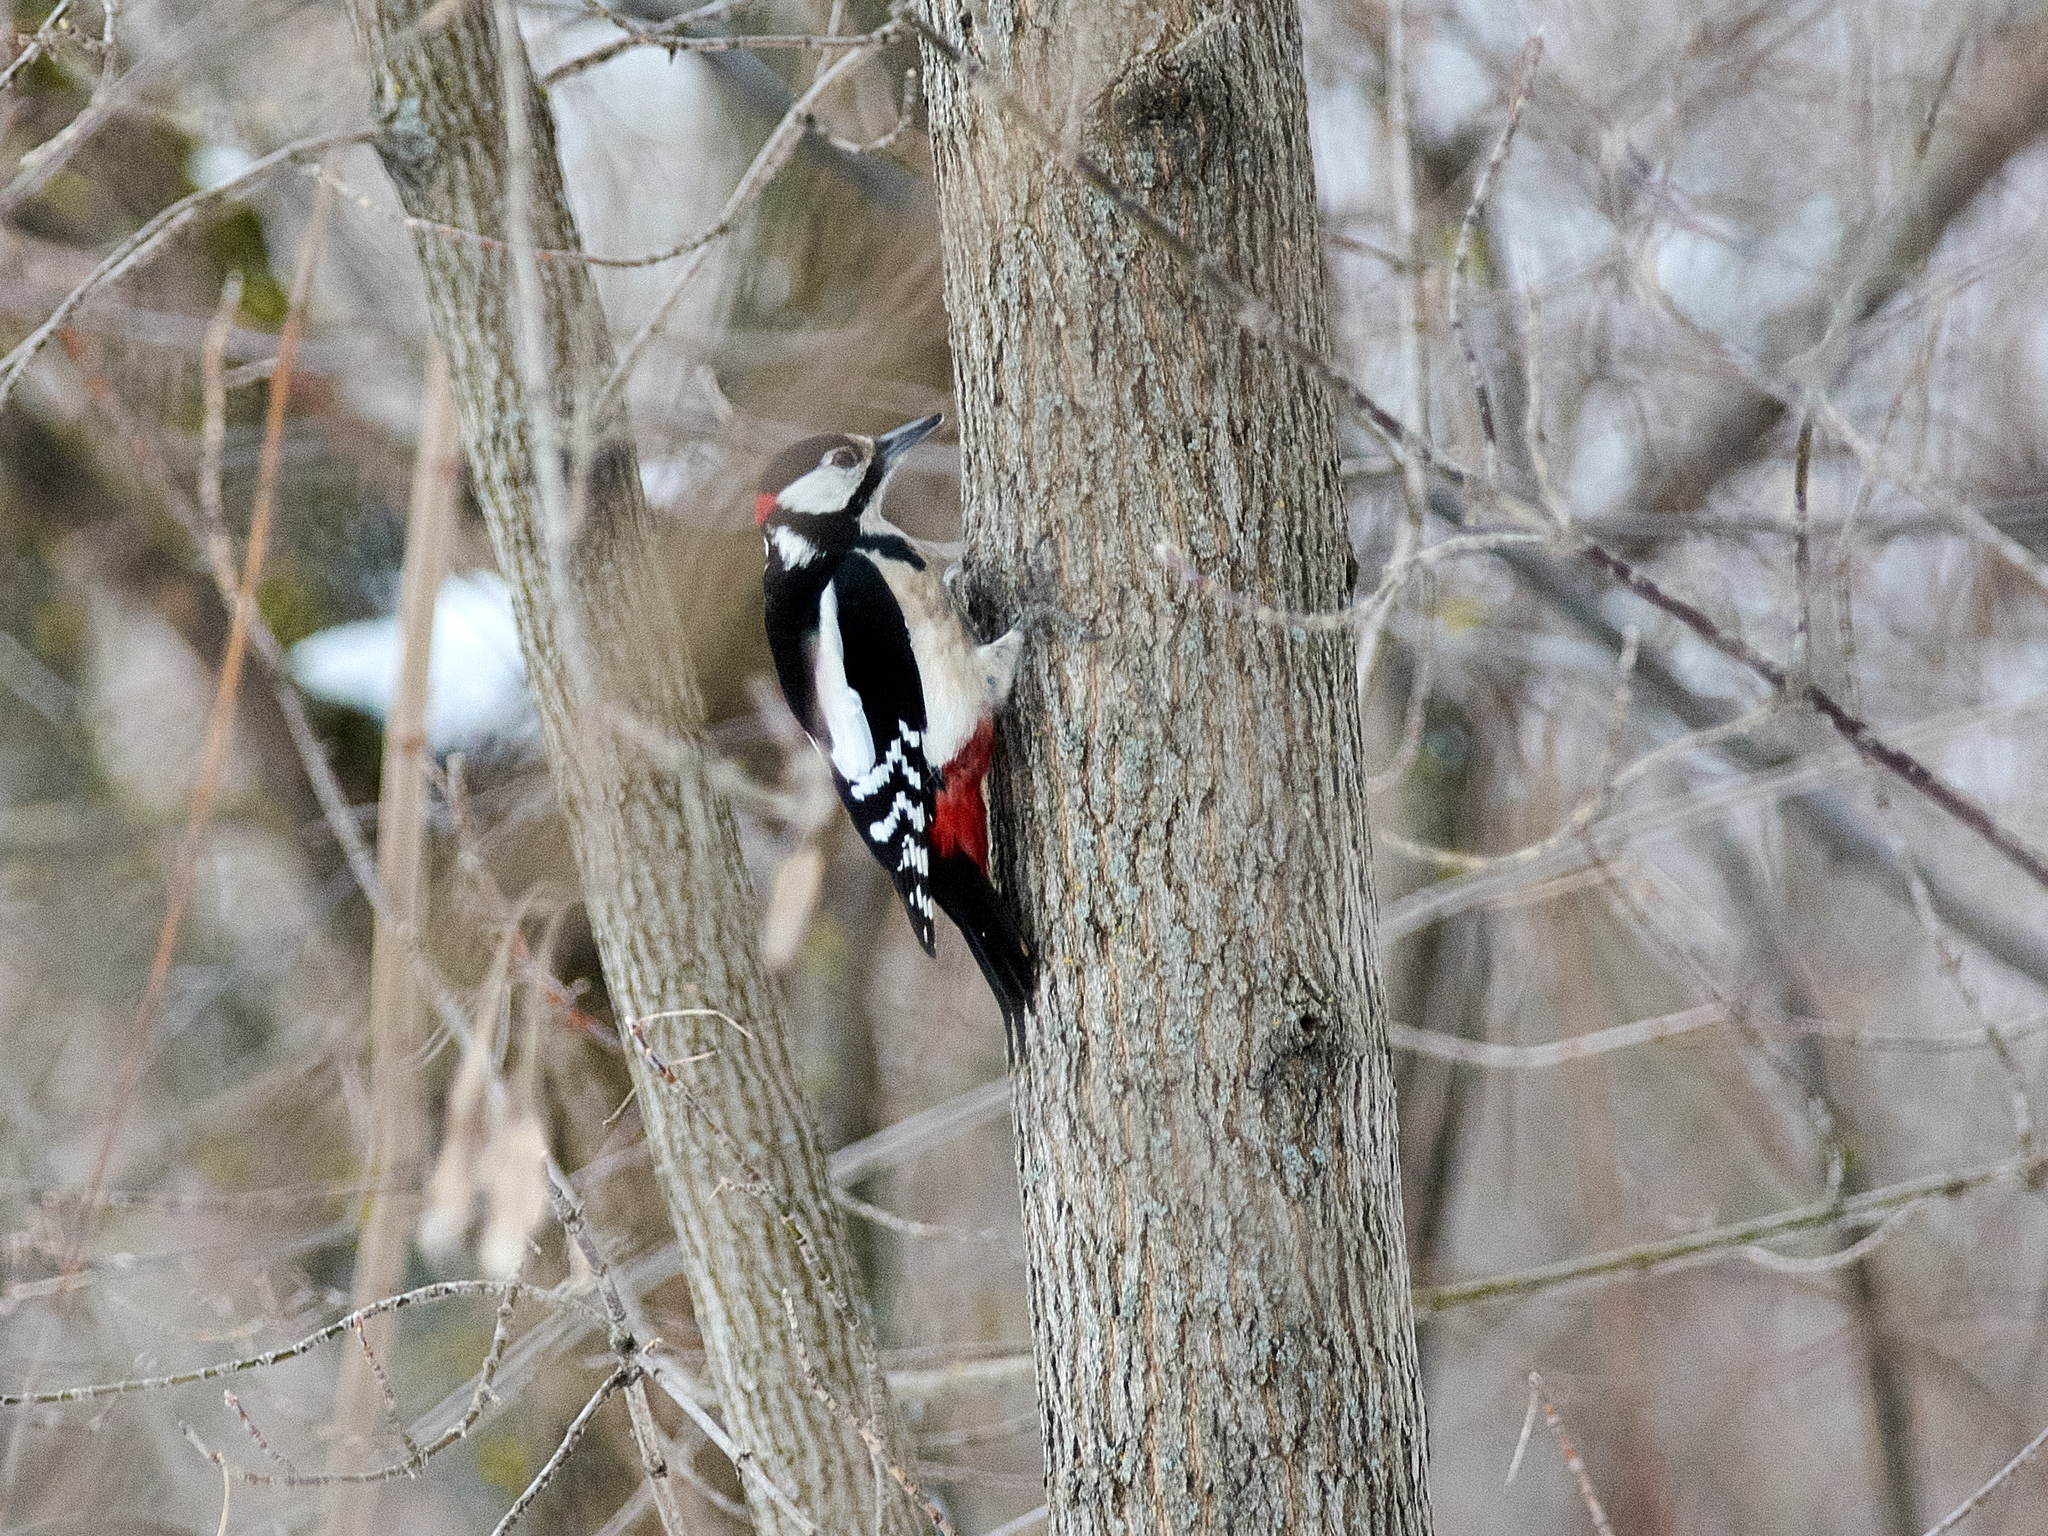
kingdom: Animalia
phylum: Chordata
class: Aves
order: Piciformes
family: Picidae
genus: Dendrocopos
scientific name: Dendrocopos major
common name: Great spotted woodpecker
